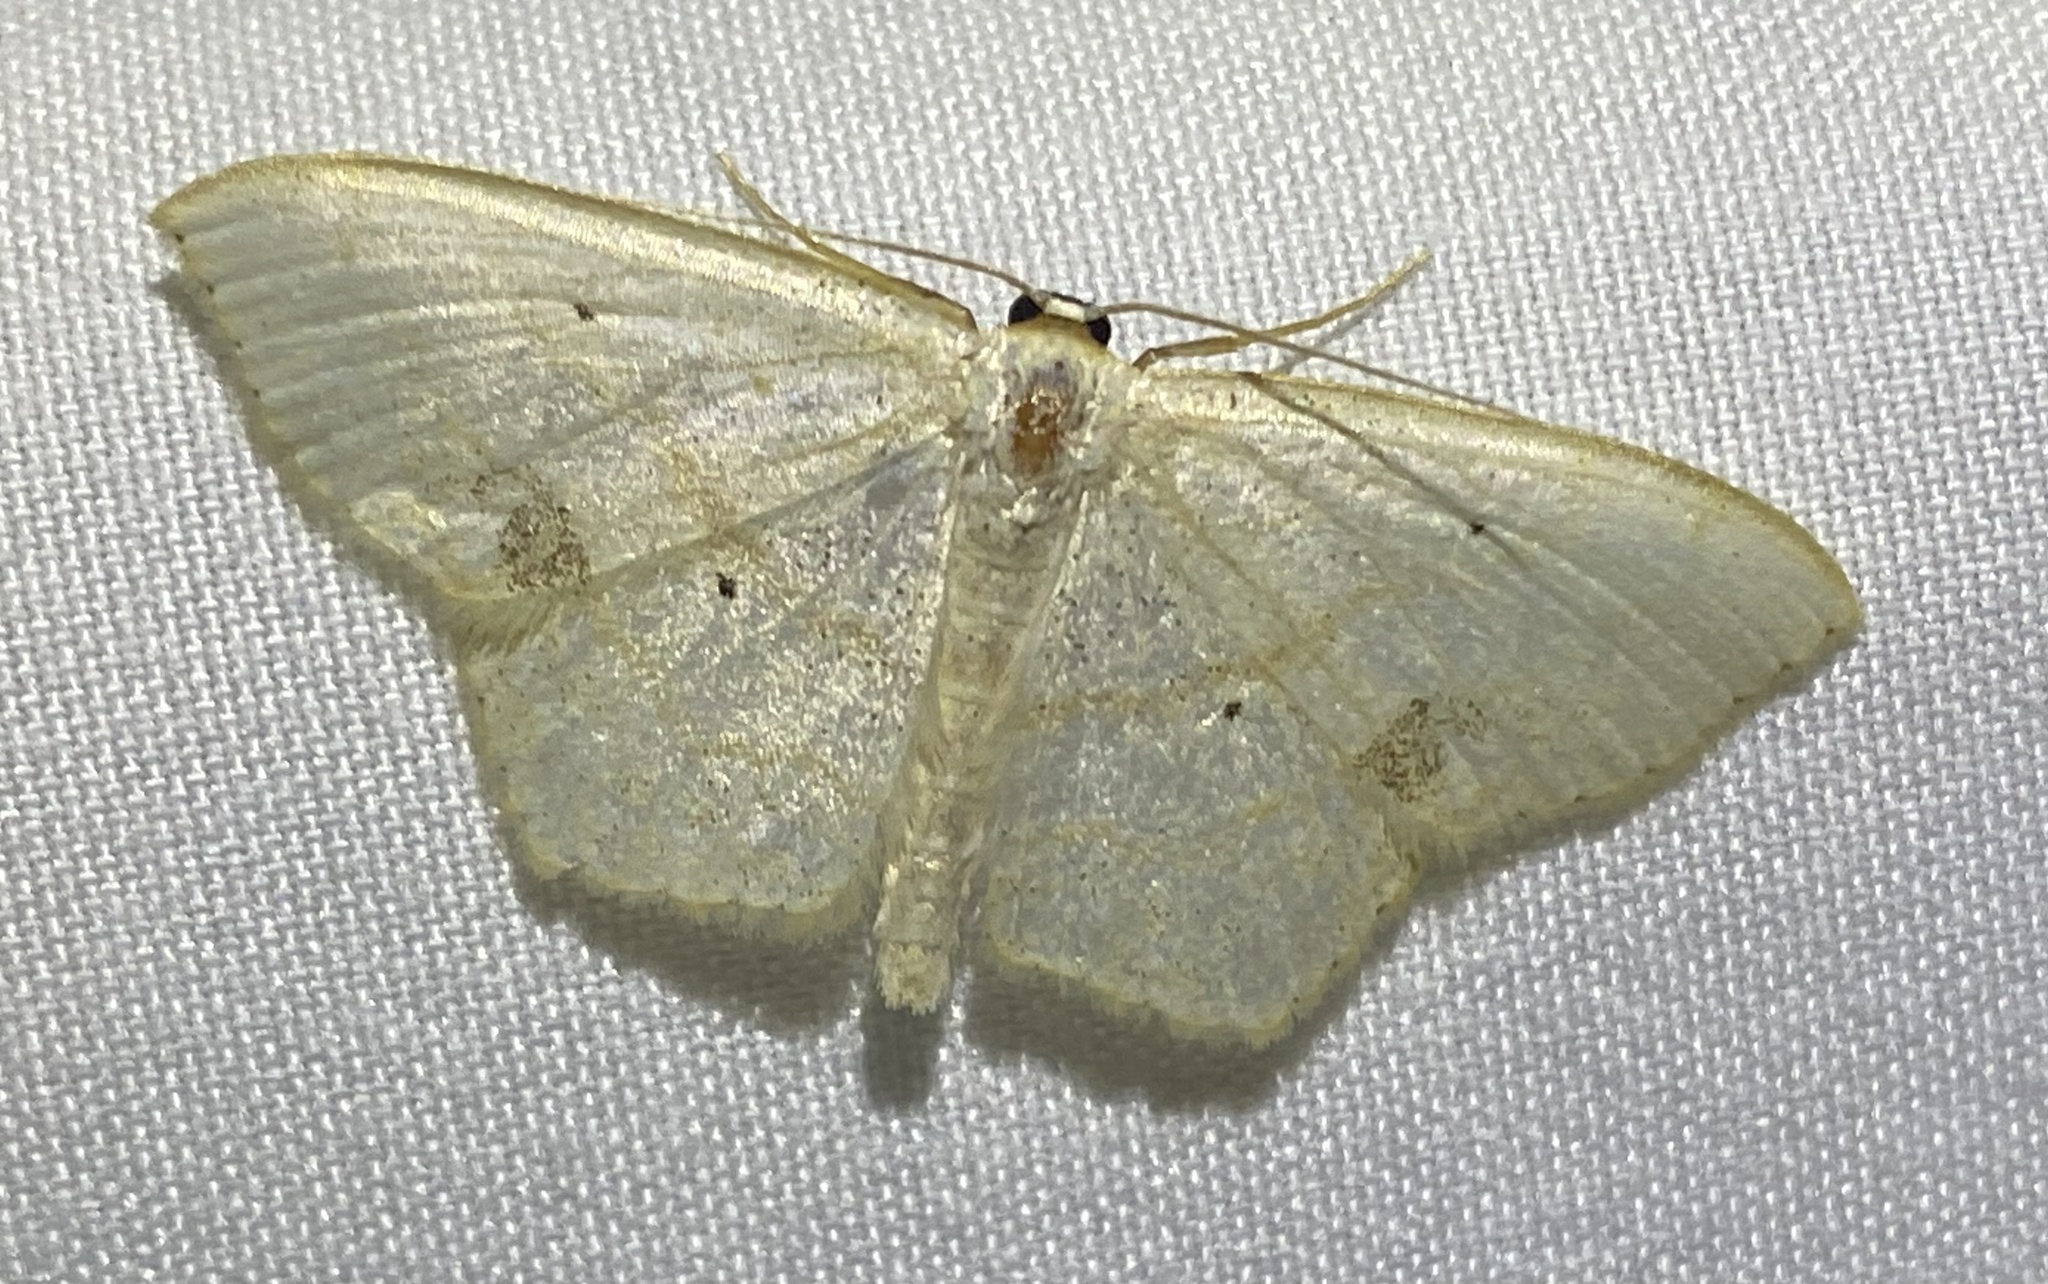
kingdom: Animalia
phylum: Arthropoda
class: Insecta
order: Lepidoptera
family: Geometridae
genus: Scopula
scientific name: Scopula limboundata
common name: Large lace border
